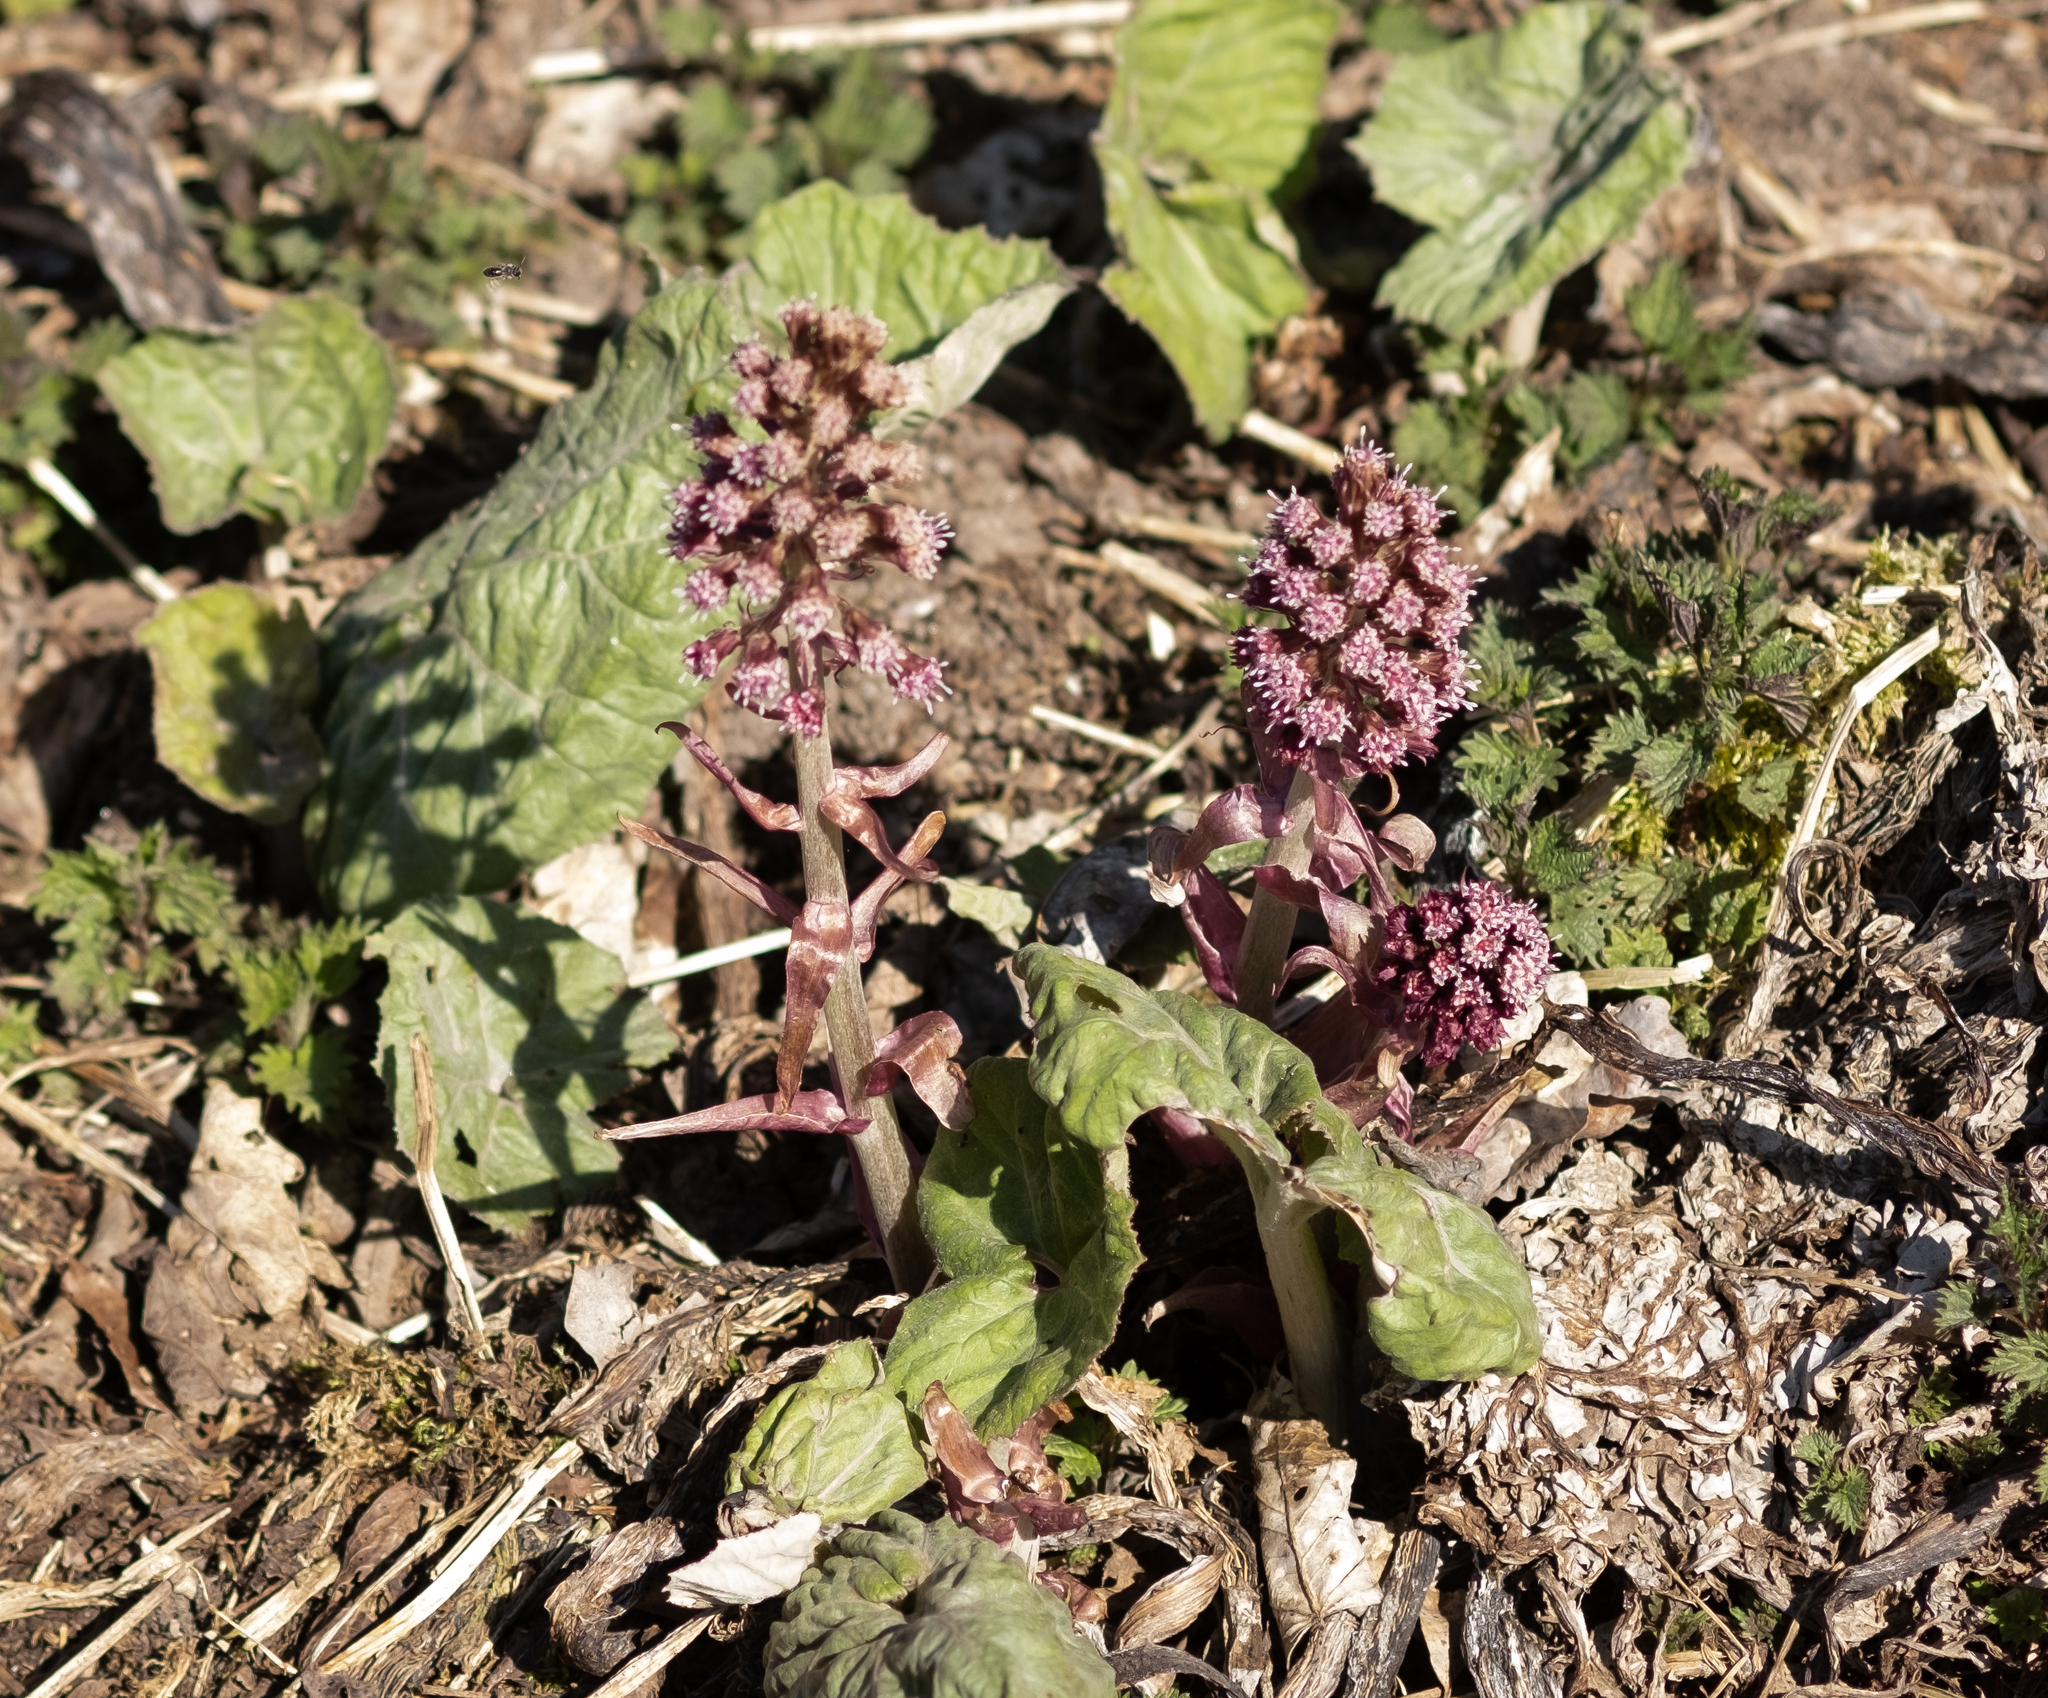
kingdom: Plantae
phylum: Tracheophyta
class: Magnoliopsida
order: Asterales
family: Asteraceae
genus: Petasites
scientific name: Petasites hybridus
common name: Butterbur
